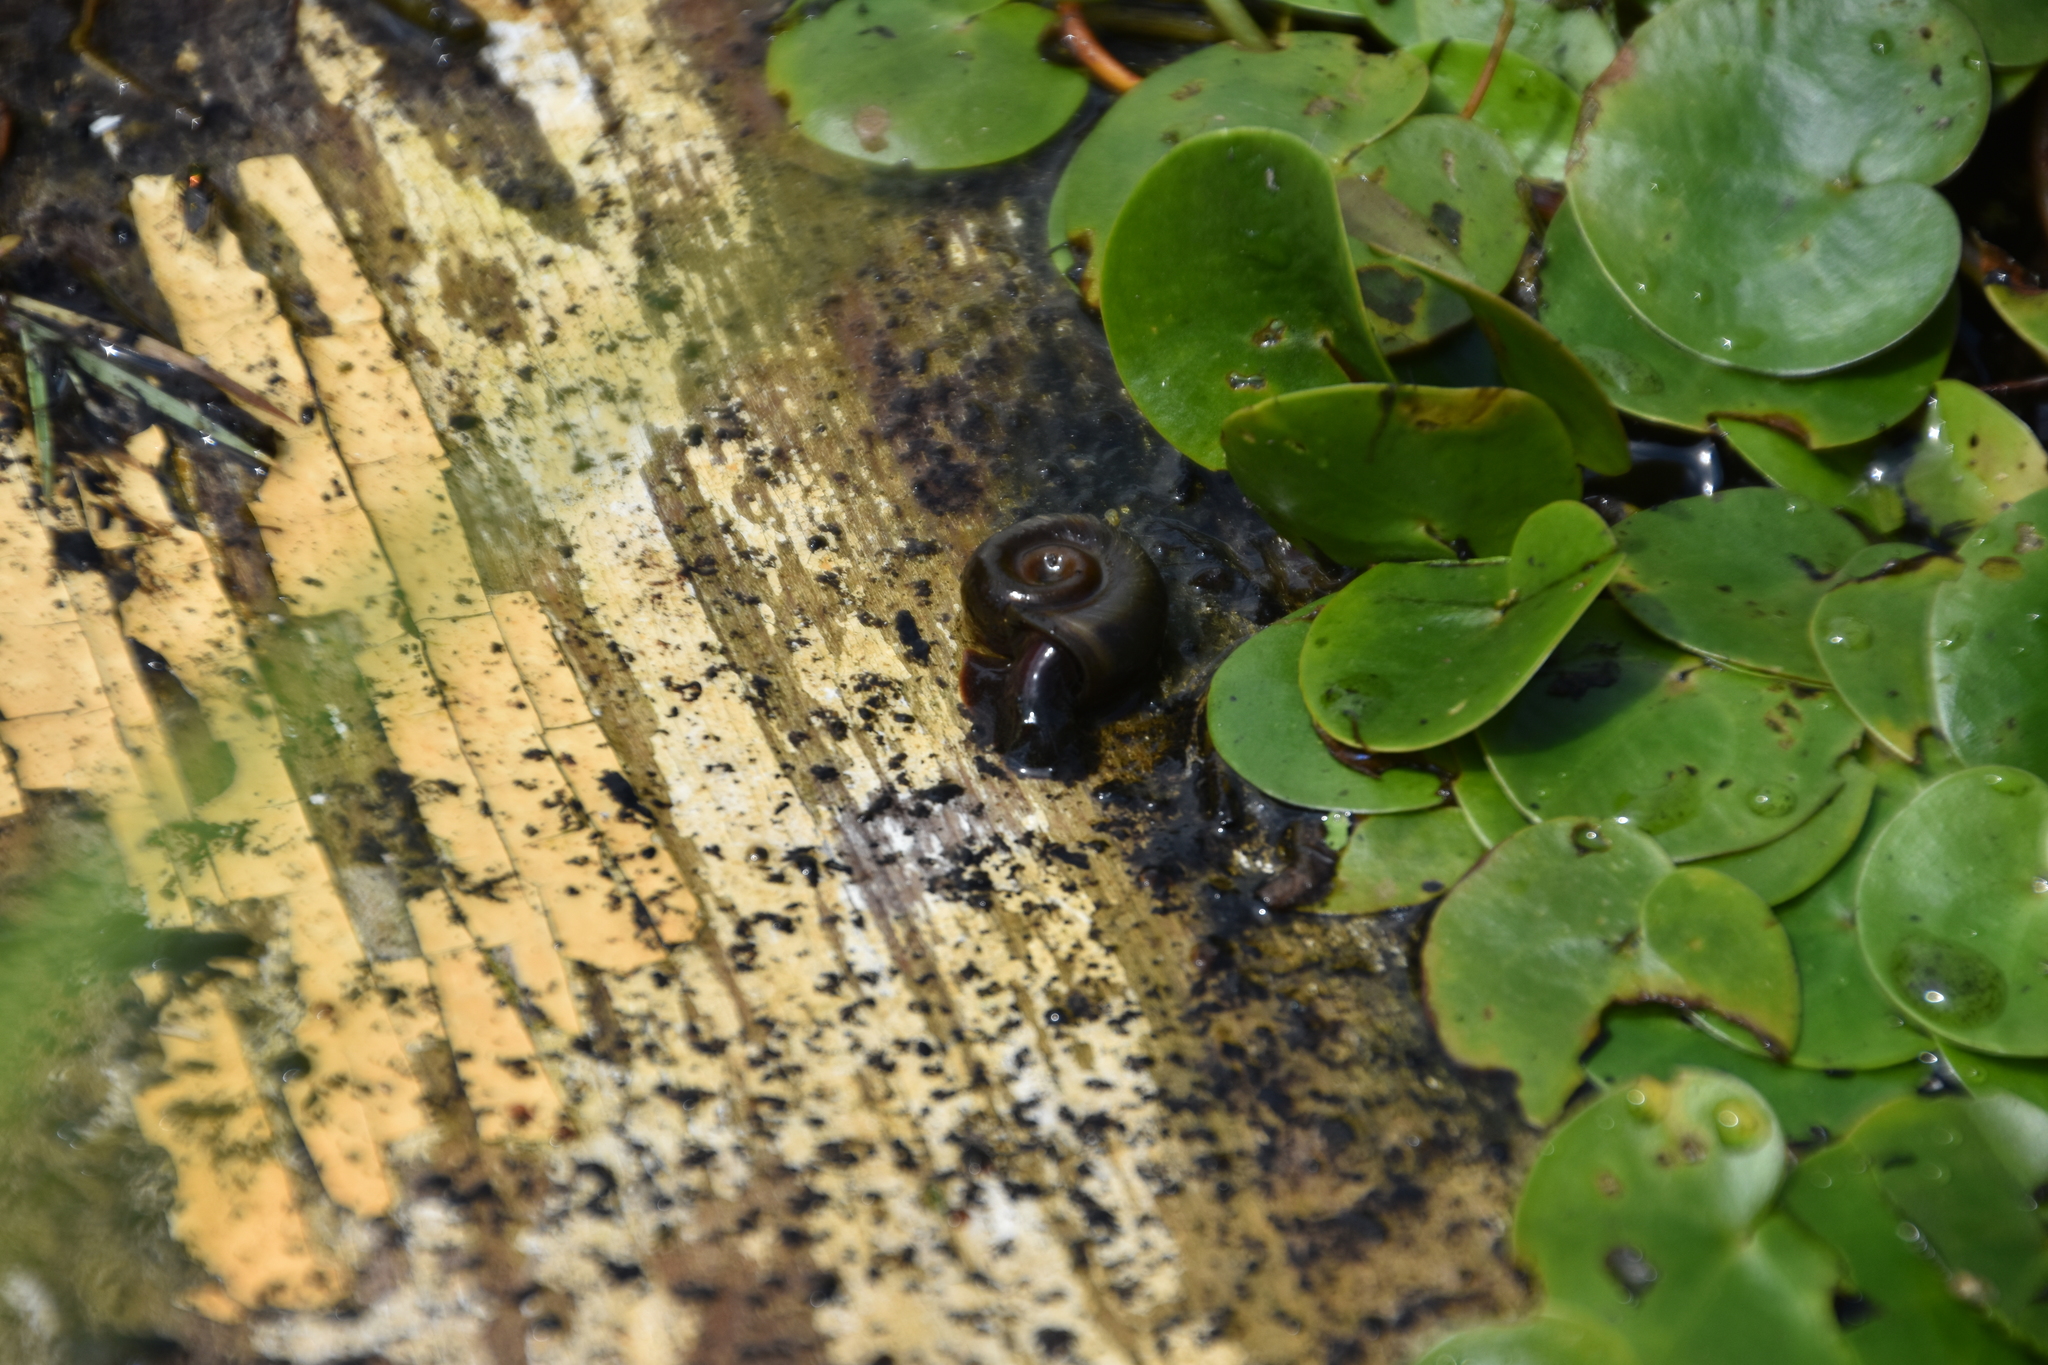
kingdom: Animalia
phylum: Mollusca
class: Gastropoda
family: Planorbidae
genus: Planorbella
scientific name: Planorbella trivolvis
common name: Marsh rams-horn
